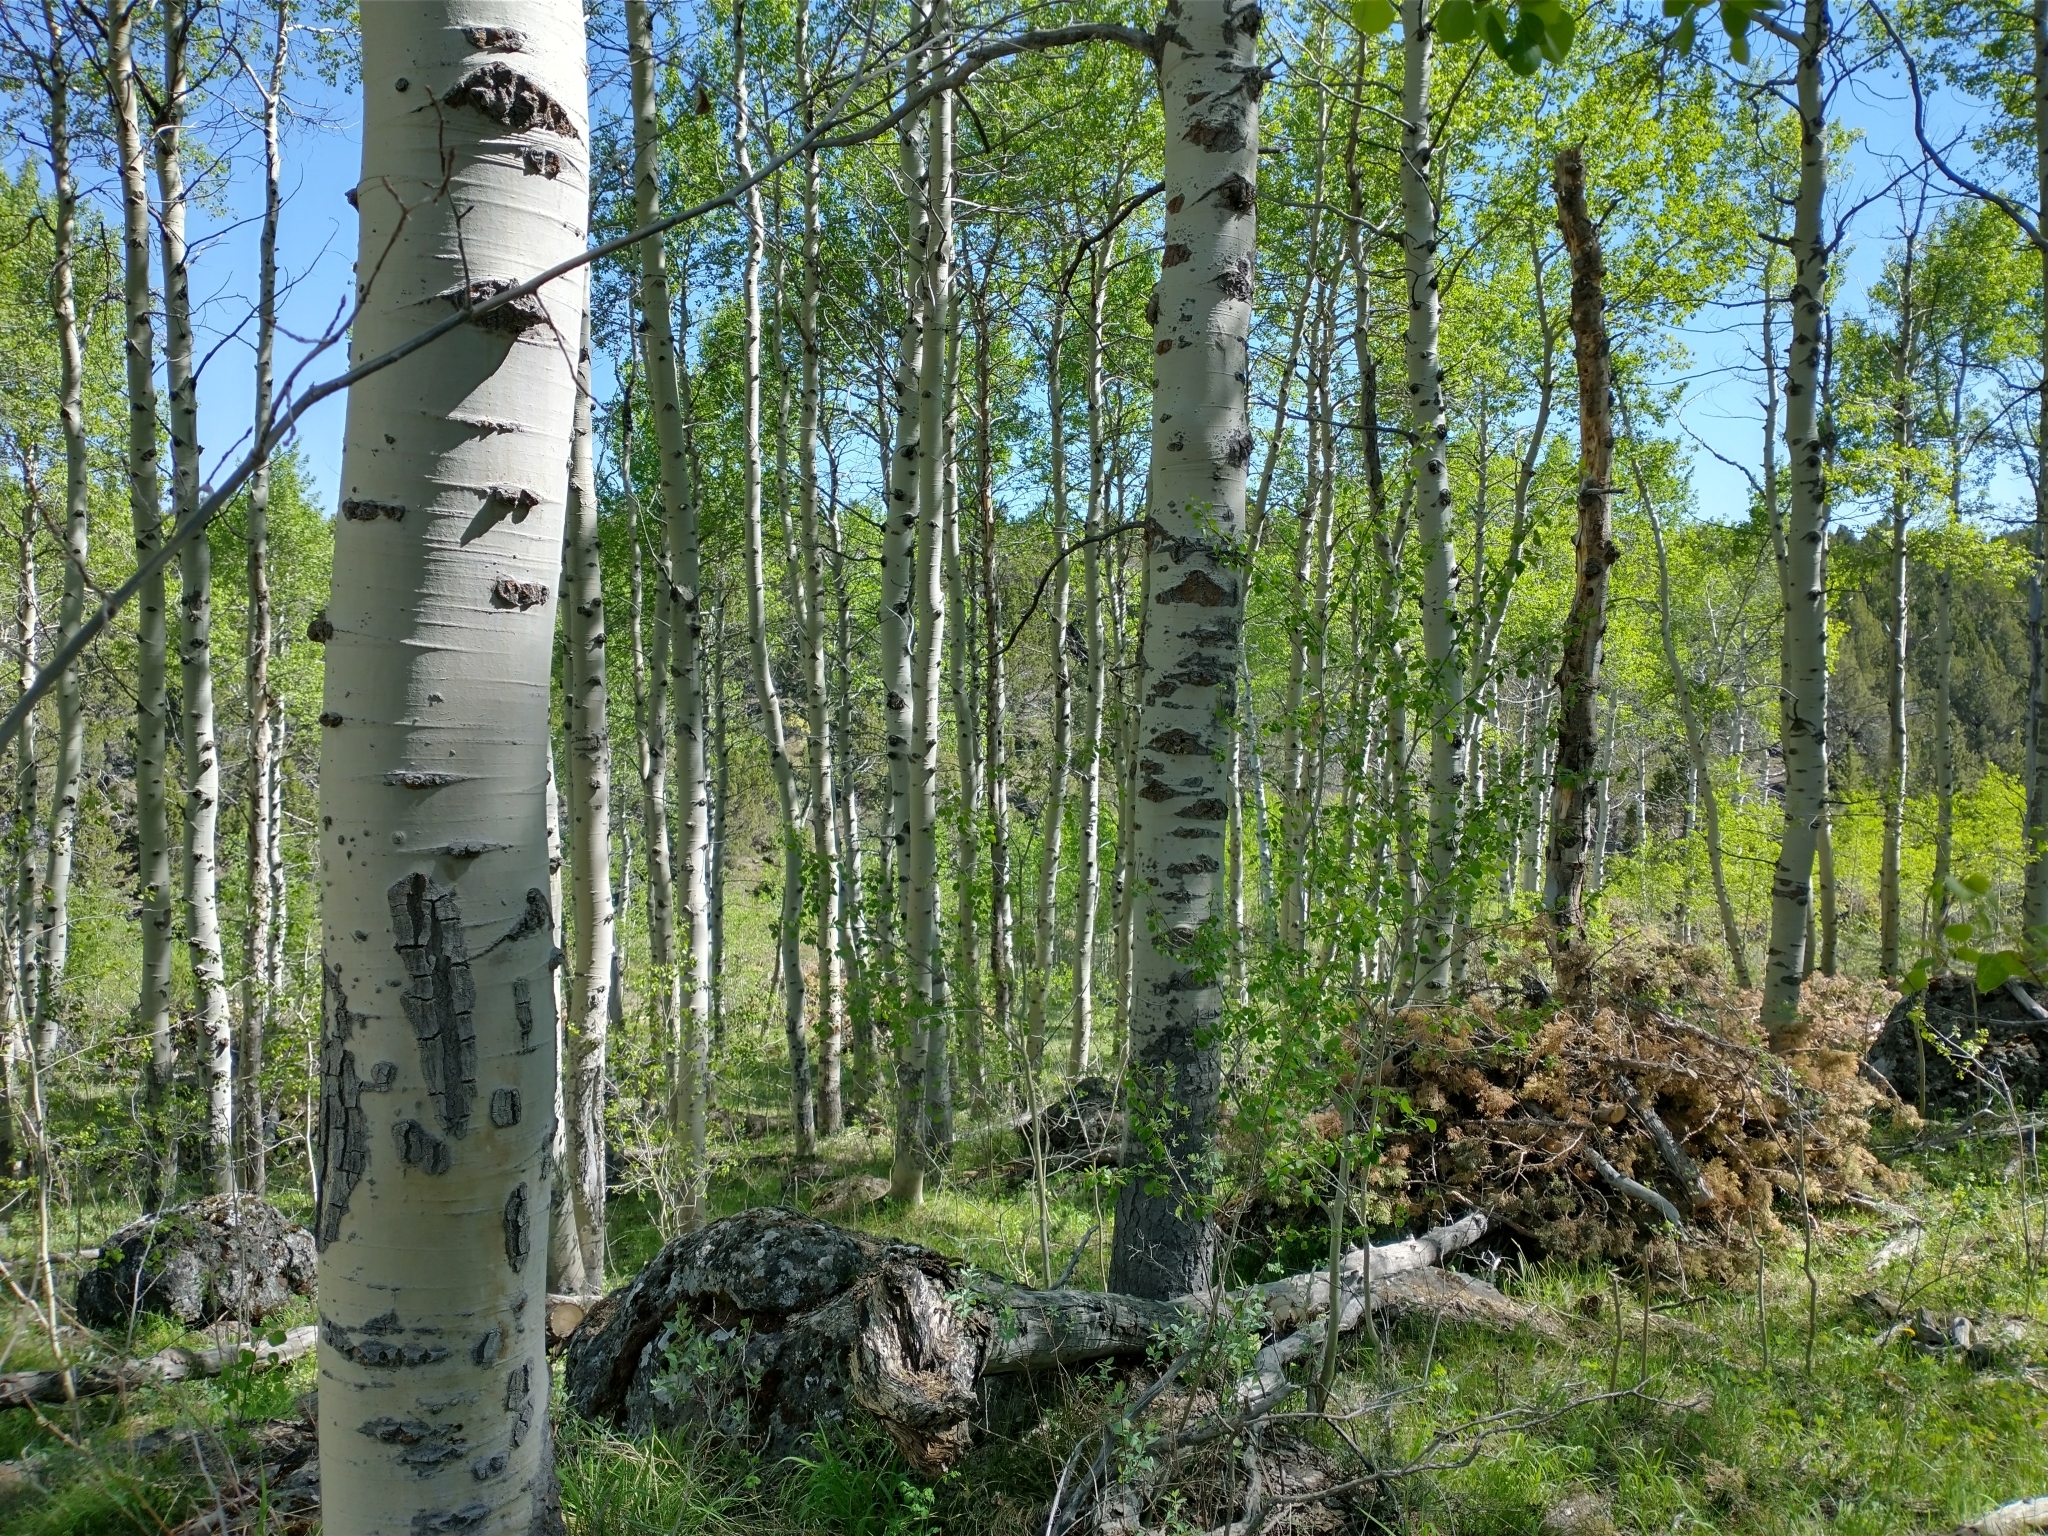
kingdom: Plantae
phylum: Tracheophyta
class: Magnoliopsida
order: Malpighiales
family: Salicaceae
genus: Populus
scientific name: Populus tremuloides
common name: Quaking aspen
